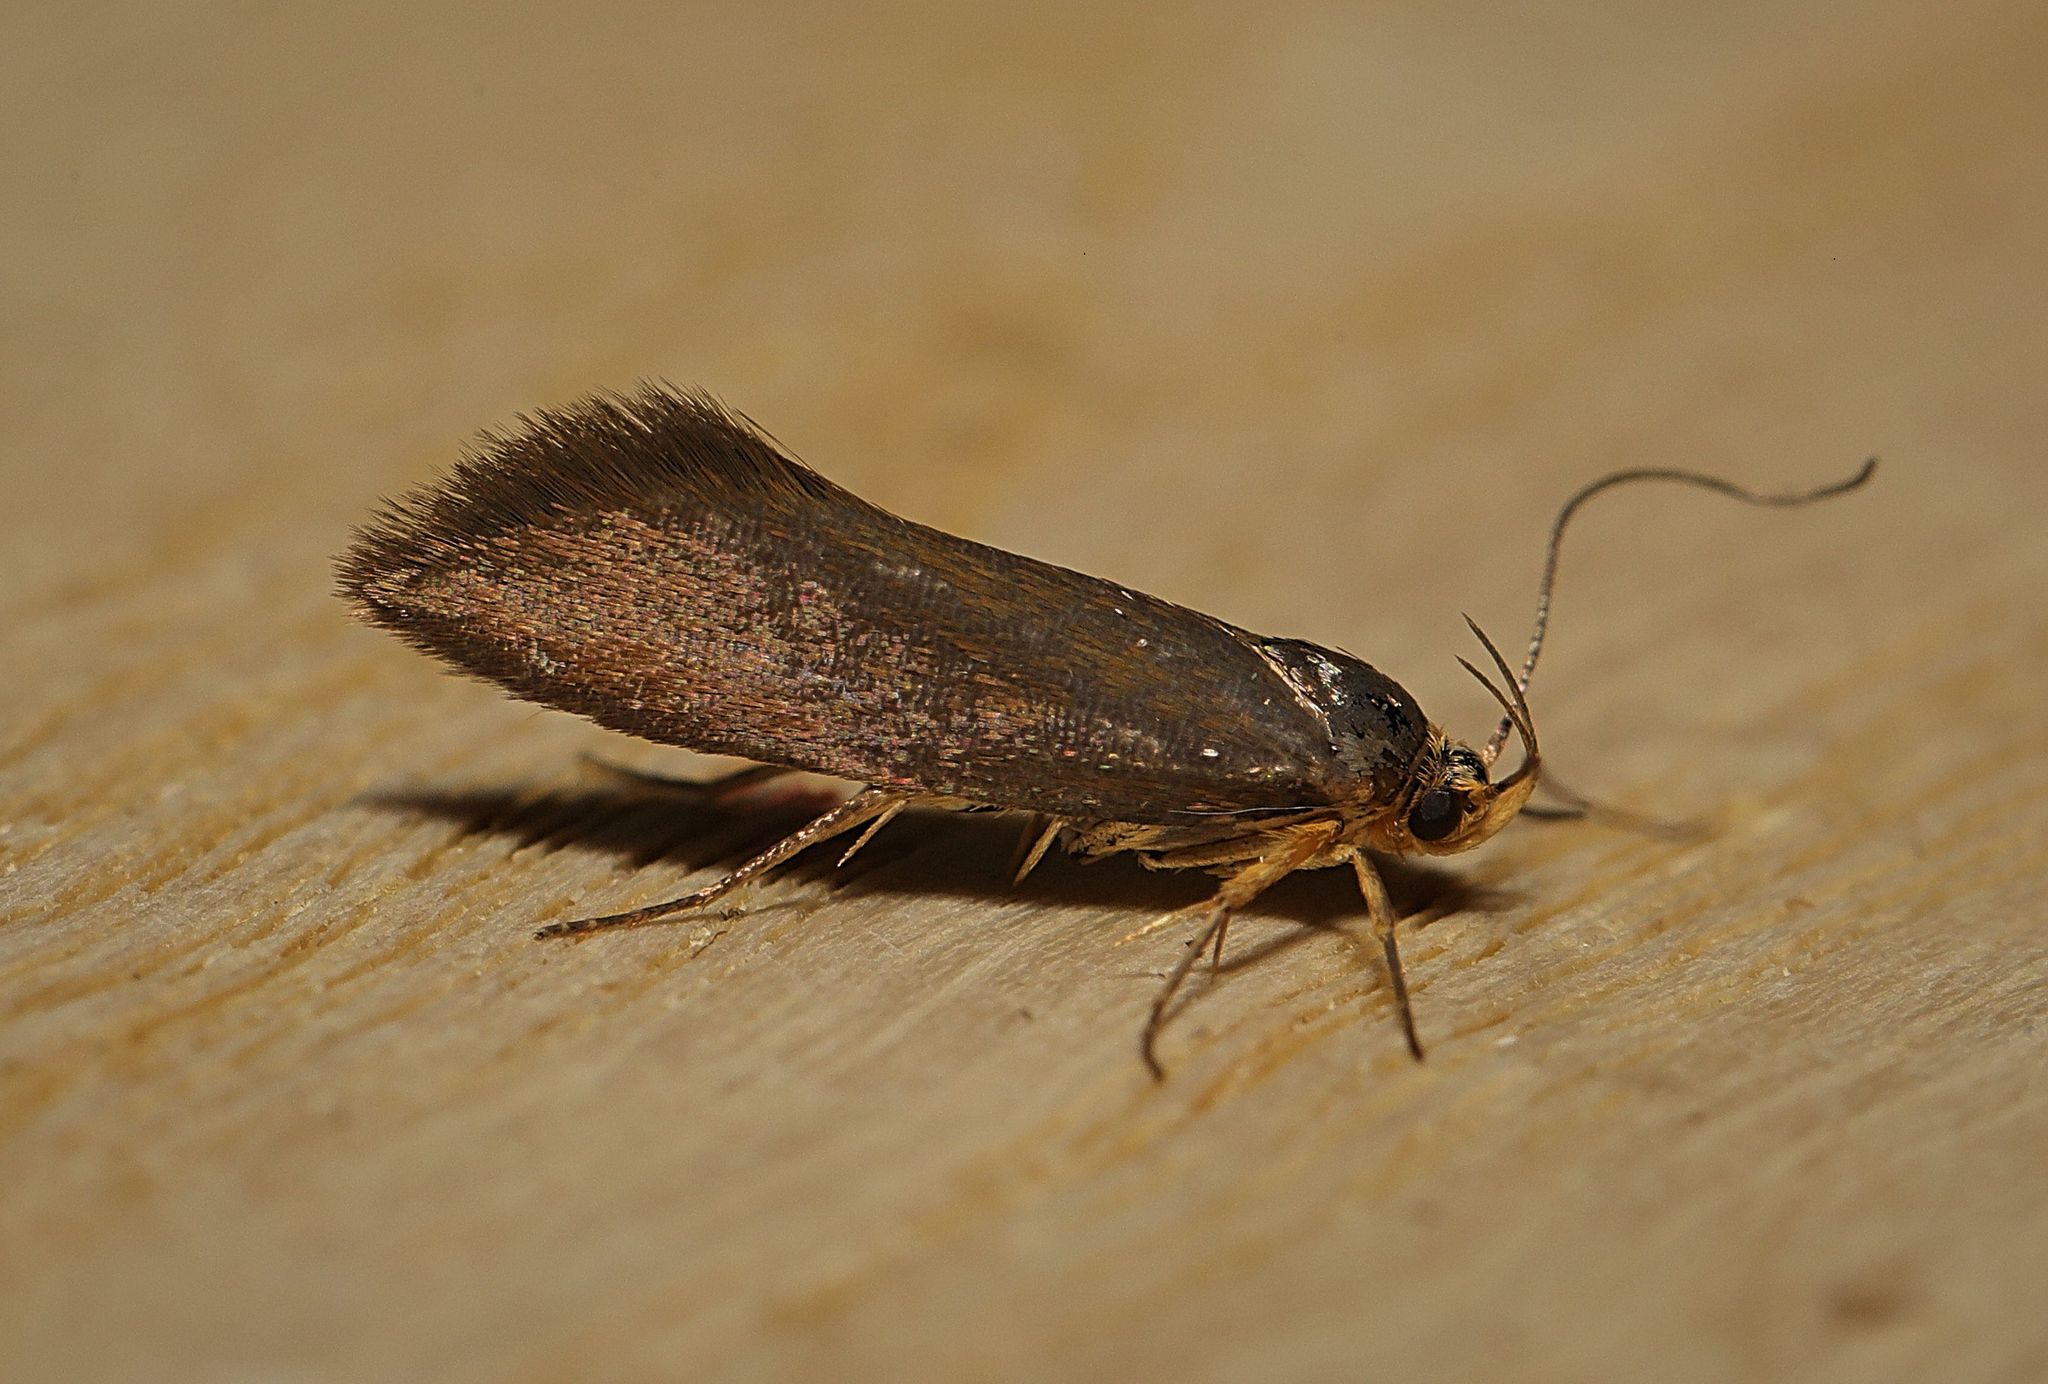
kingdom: Animalia
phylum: Arthropoda
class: Insecta
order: Lepidoptera
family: Oecophoridae
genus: Borkhausenia
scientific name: Borkhausenia Crassa unitella
